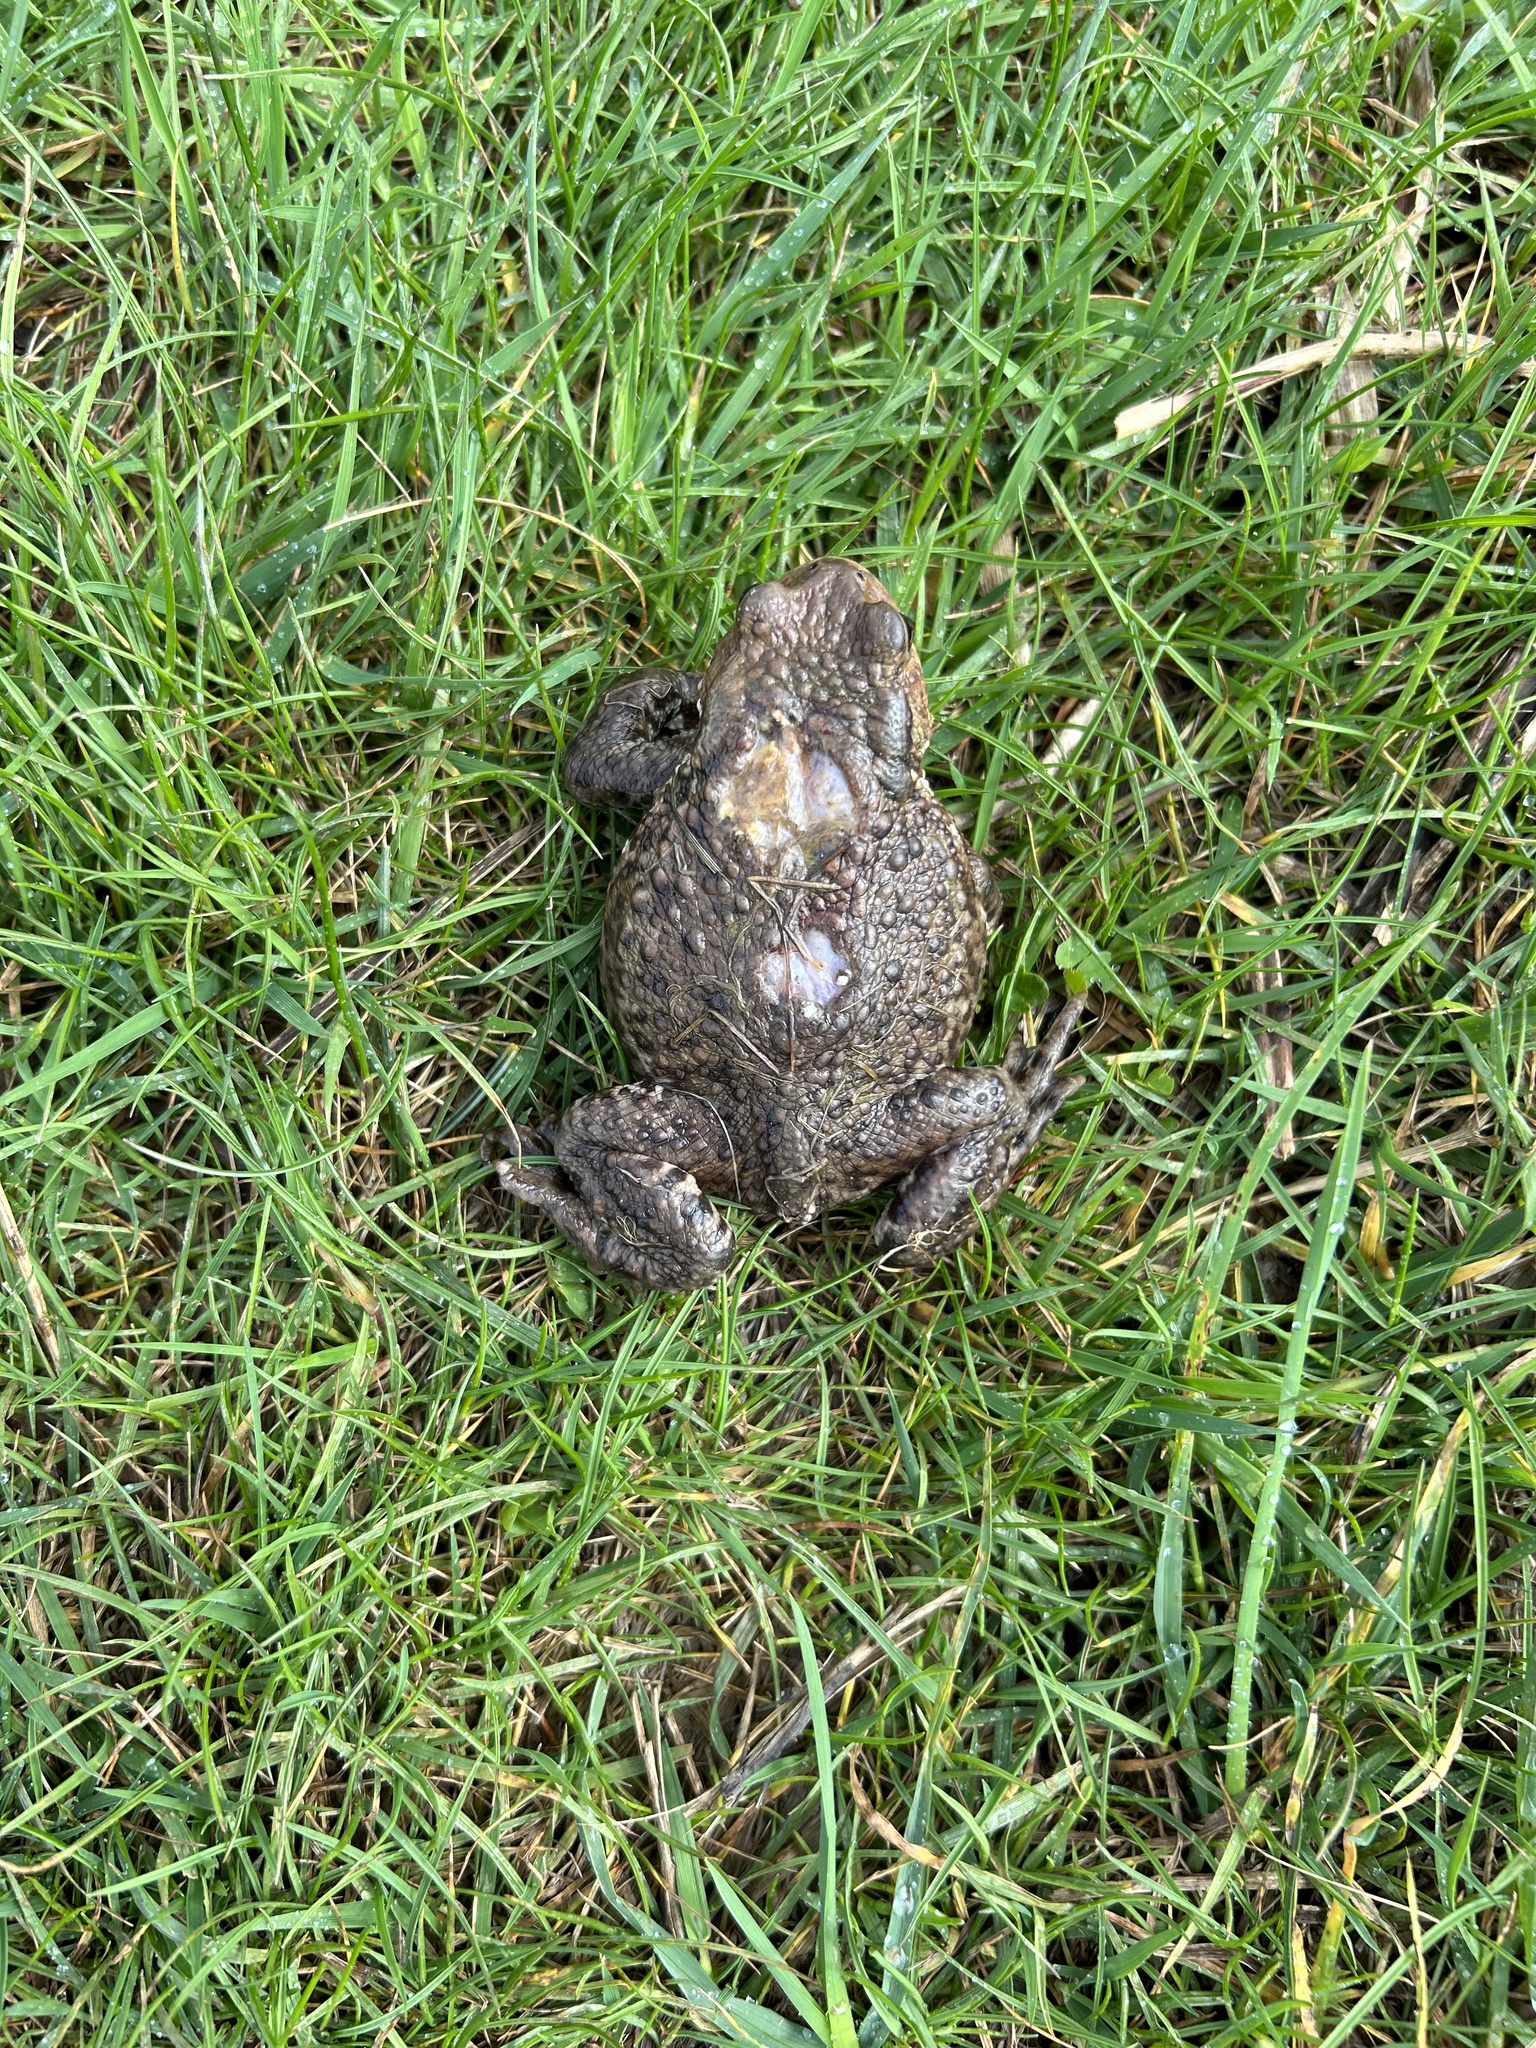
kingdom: Animalia
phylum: Chordata
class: Amphibia
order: Anura
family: Bufonidae
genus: Bufo
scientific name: Bufo bufo
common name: Common toad
